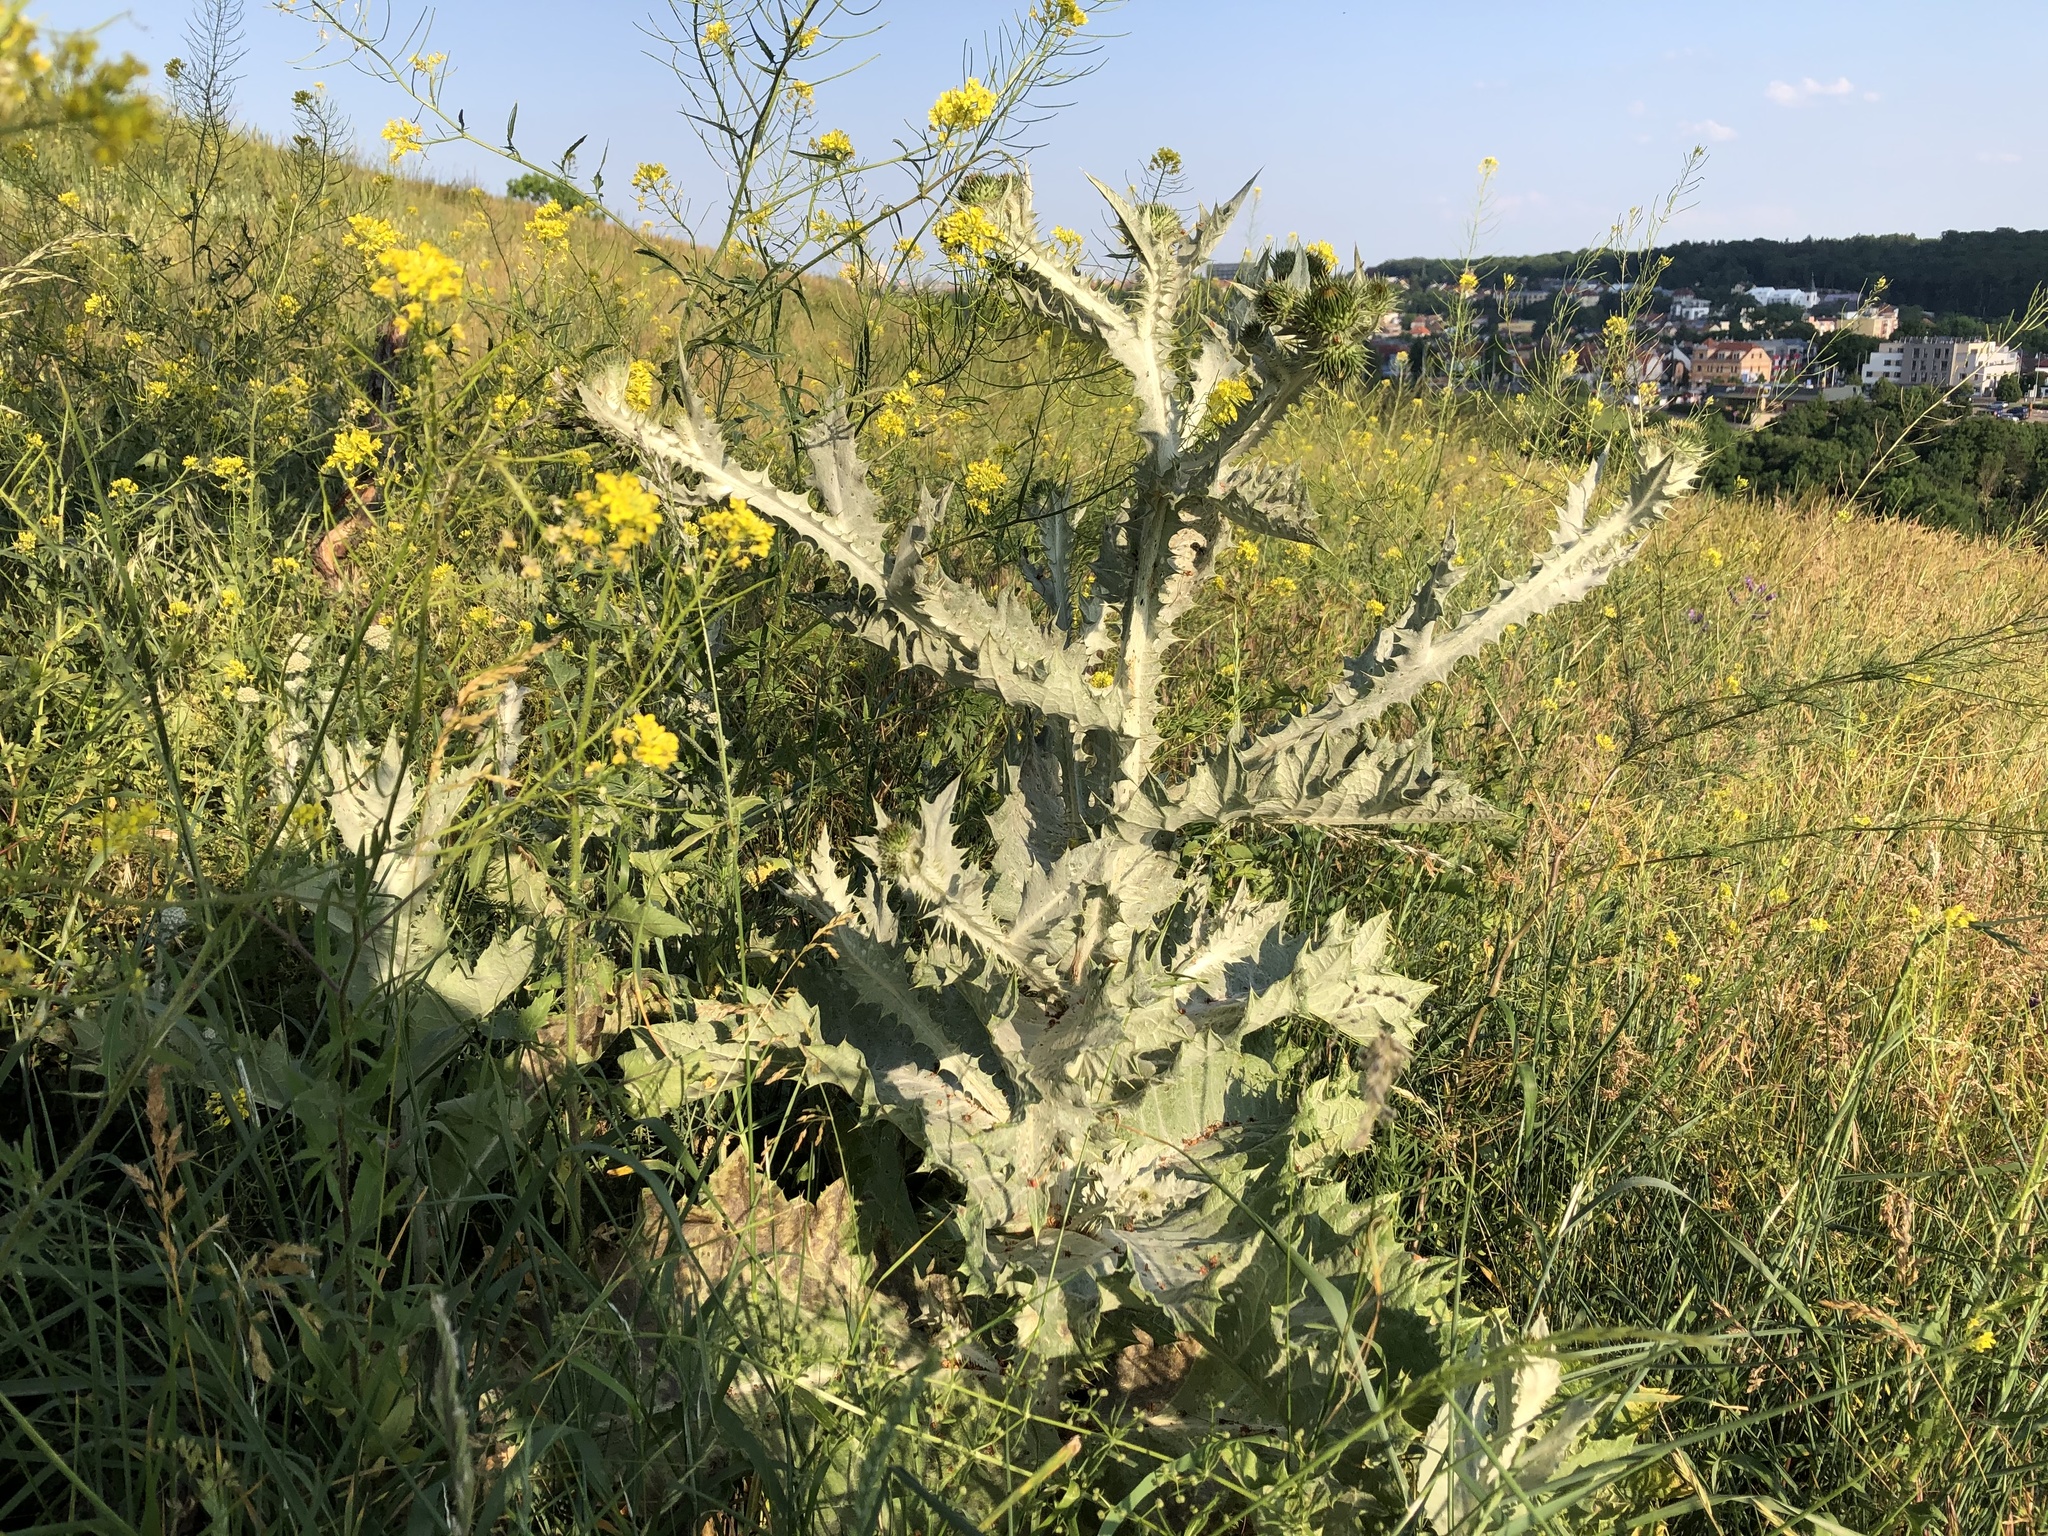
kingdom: Plantae
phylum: Tracheophyta
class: Magnoliopsida
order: Asterales
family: Asteraceae
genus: Onopordum
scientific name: Onopordum acanthium
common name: Scotch thistle
